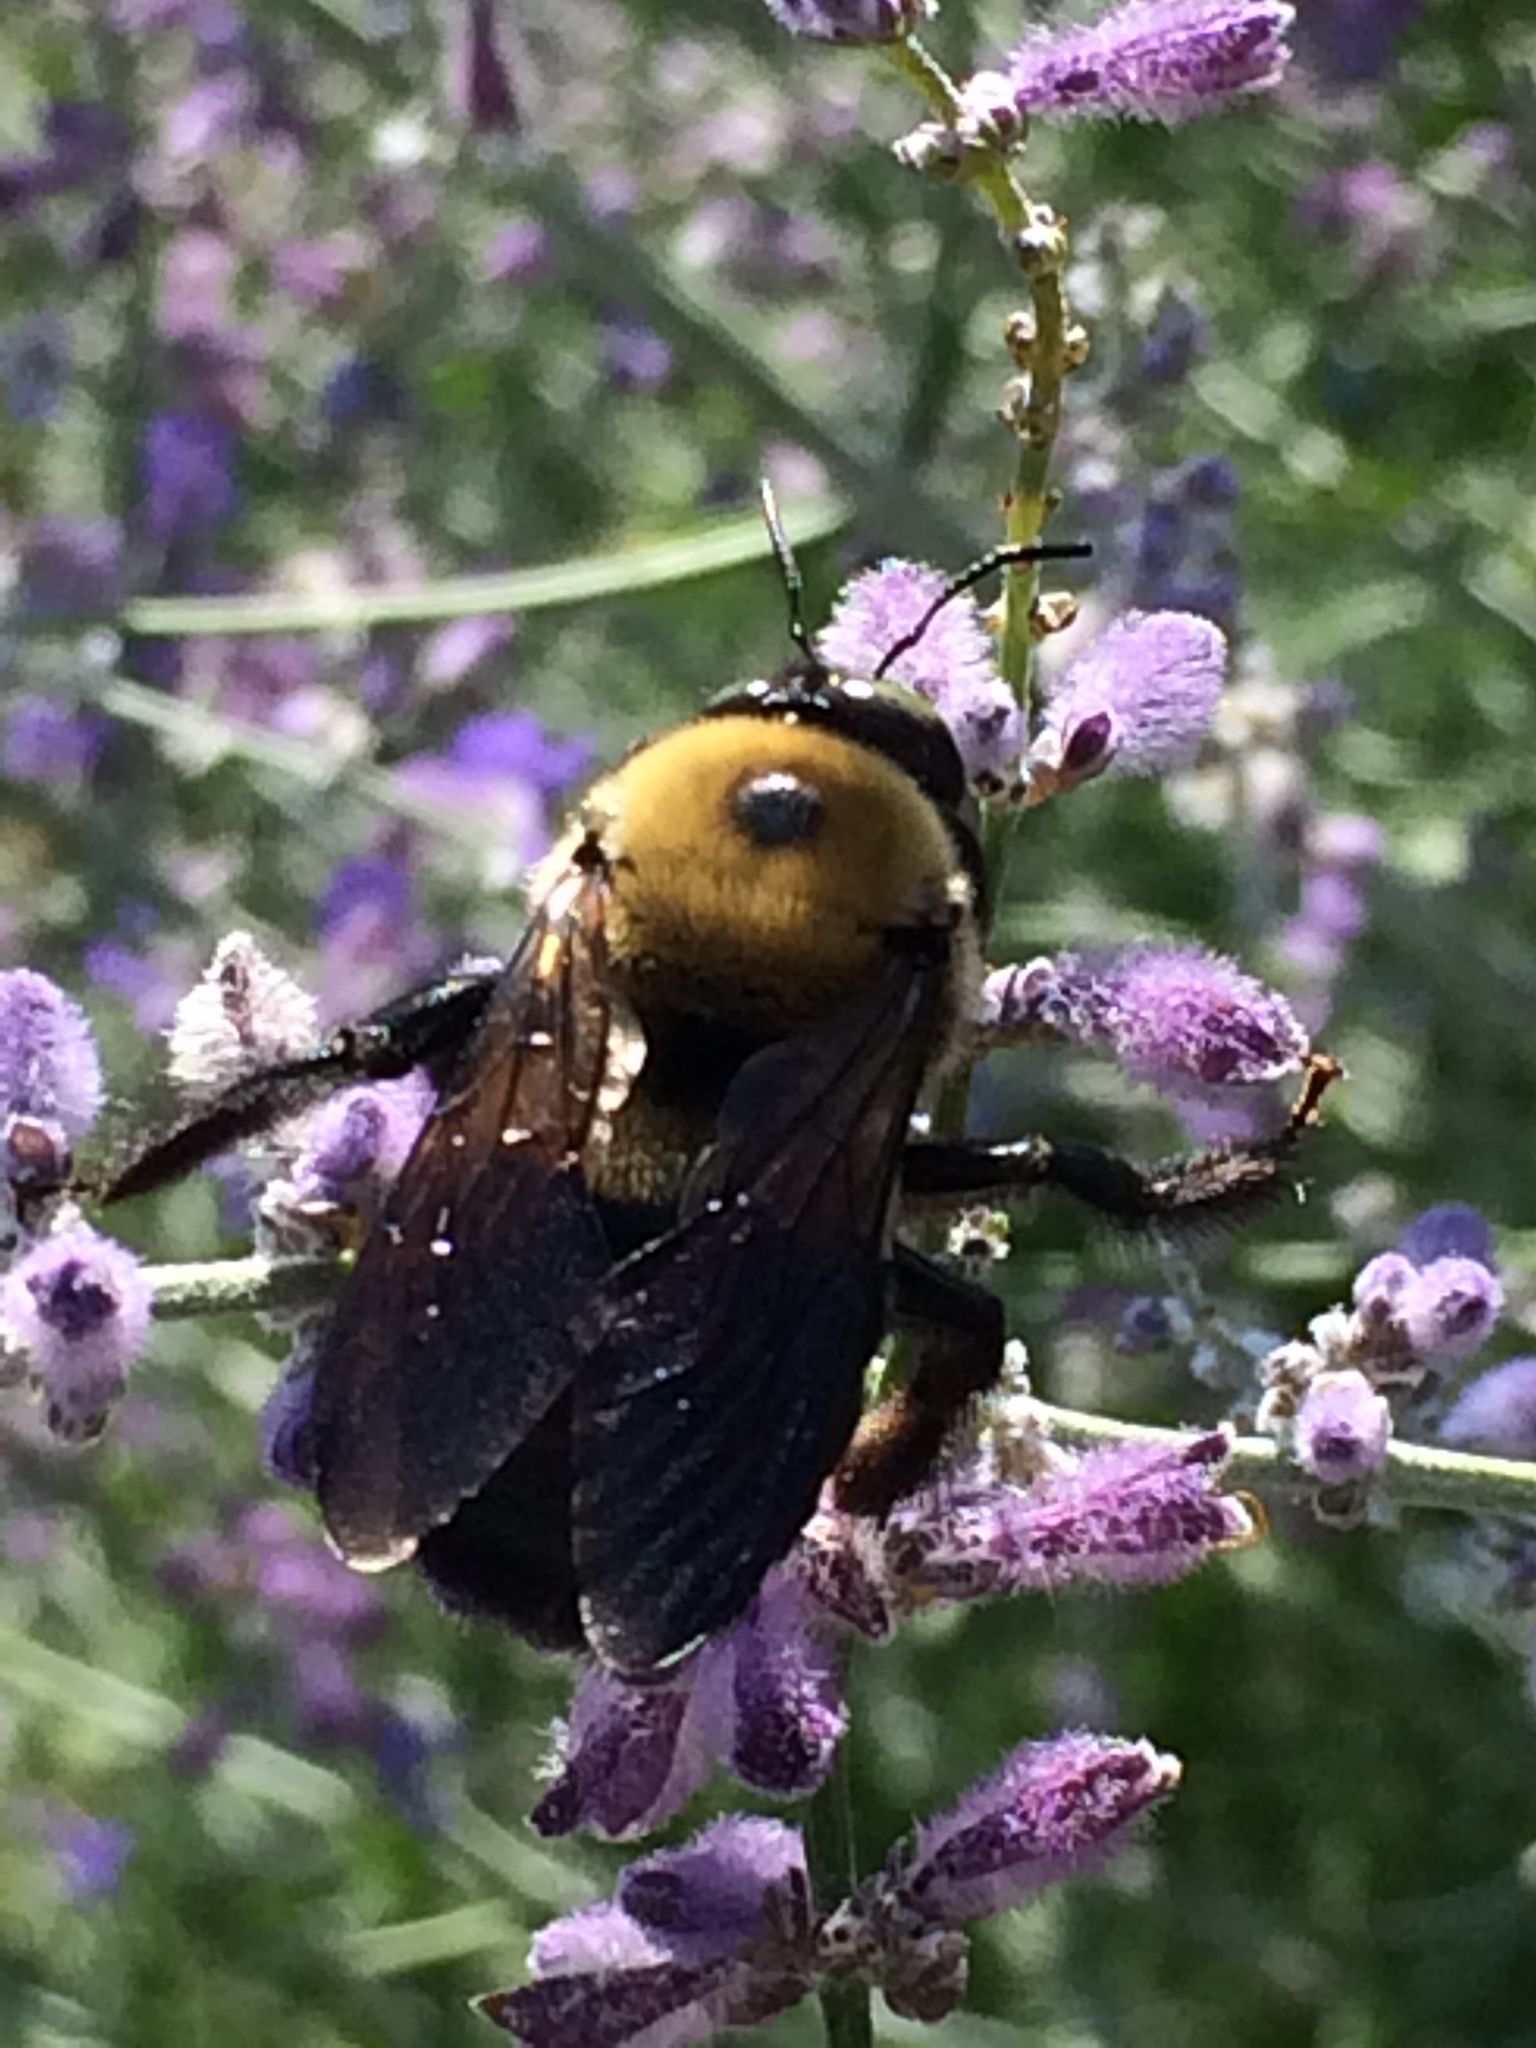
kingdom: Animalia
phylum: Arthropoda
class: Insecta
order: Hymenoptera
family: Apidae
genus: Xylocopa
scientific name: Xylocopa virginica
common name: Carpenter bee
